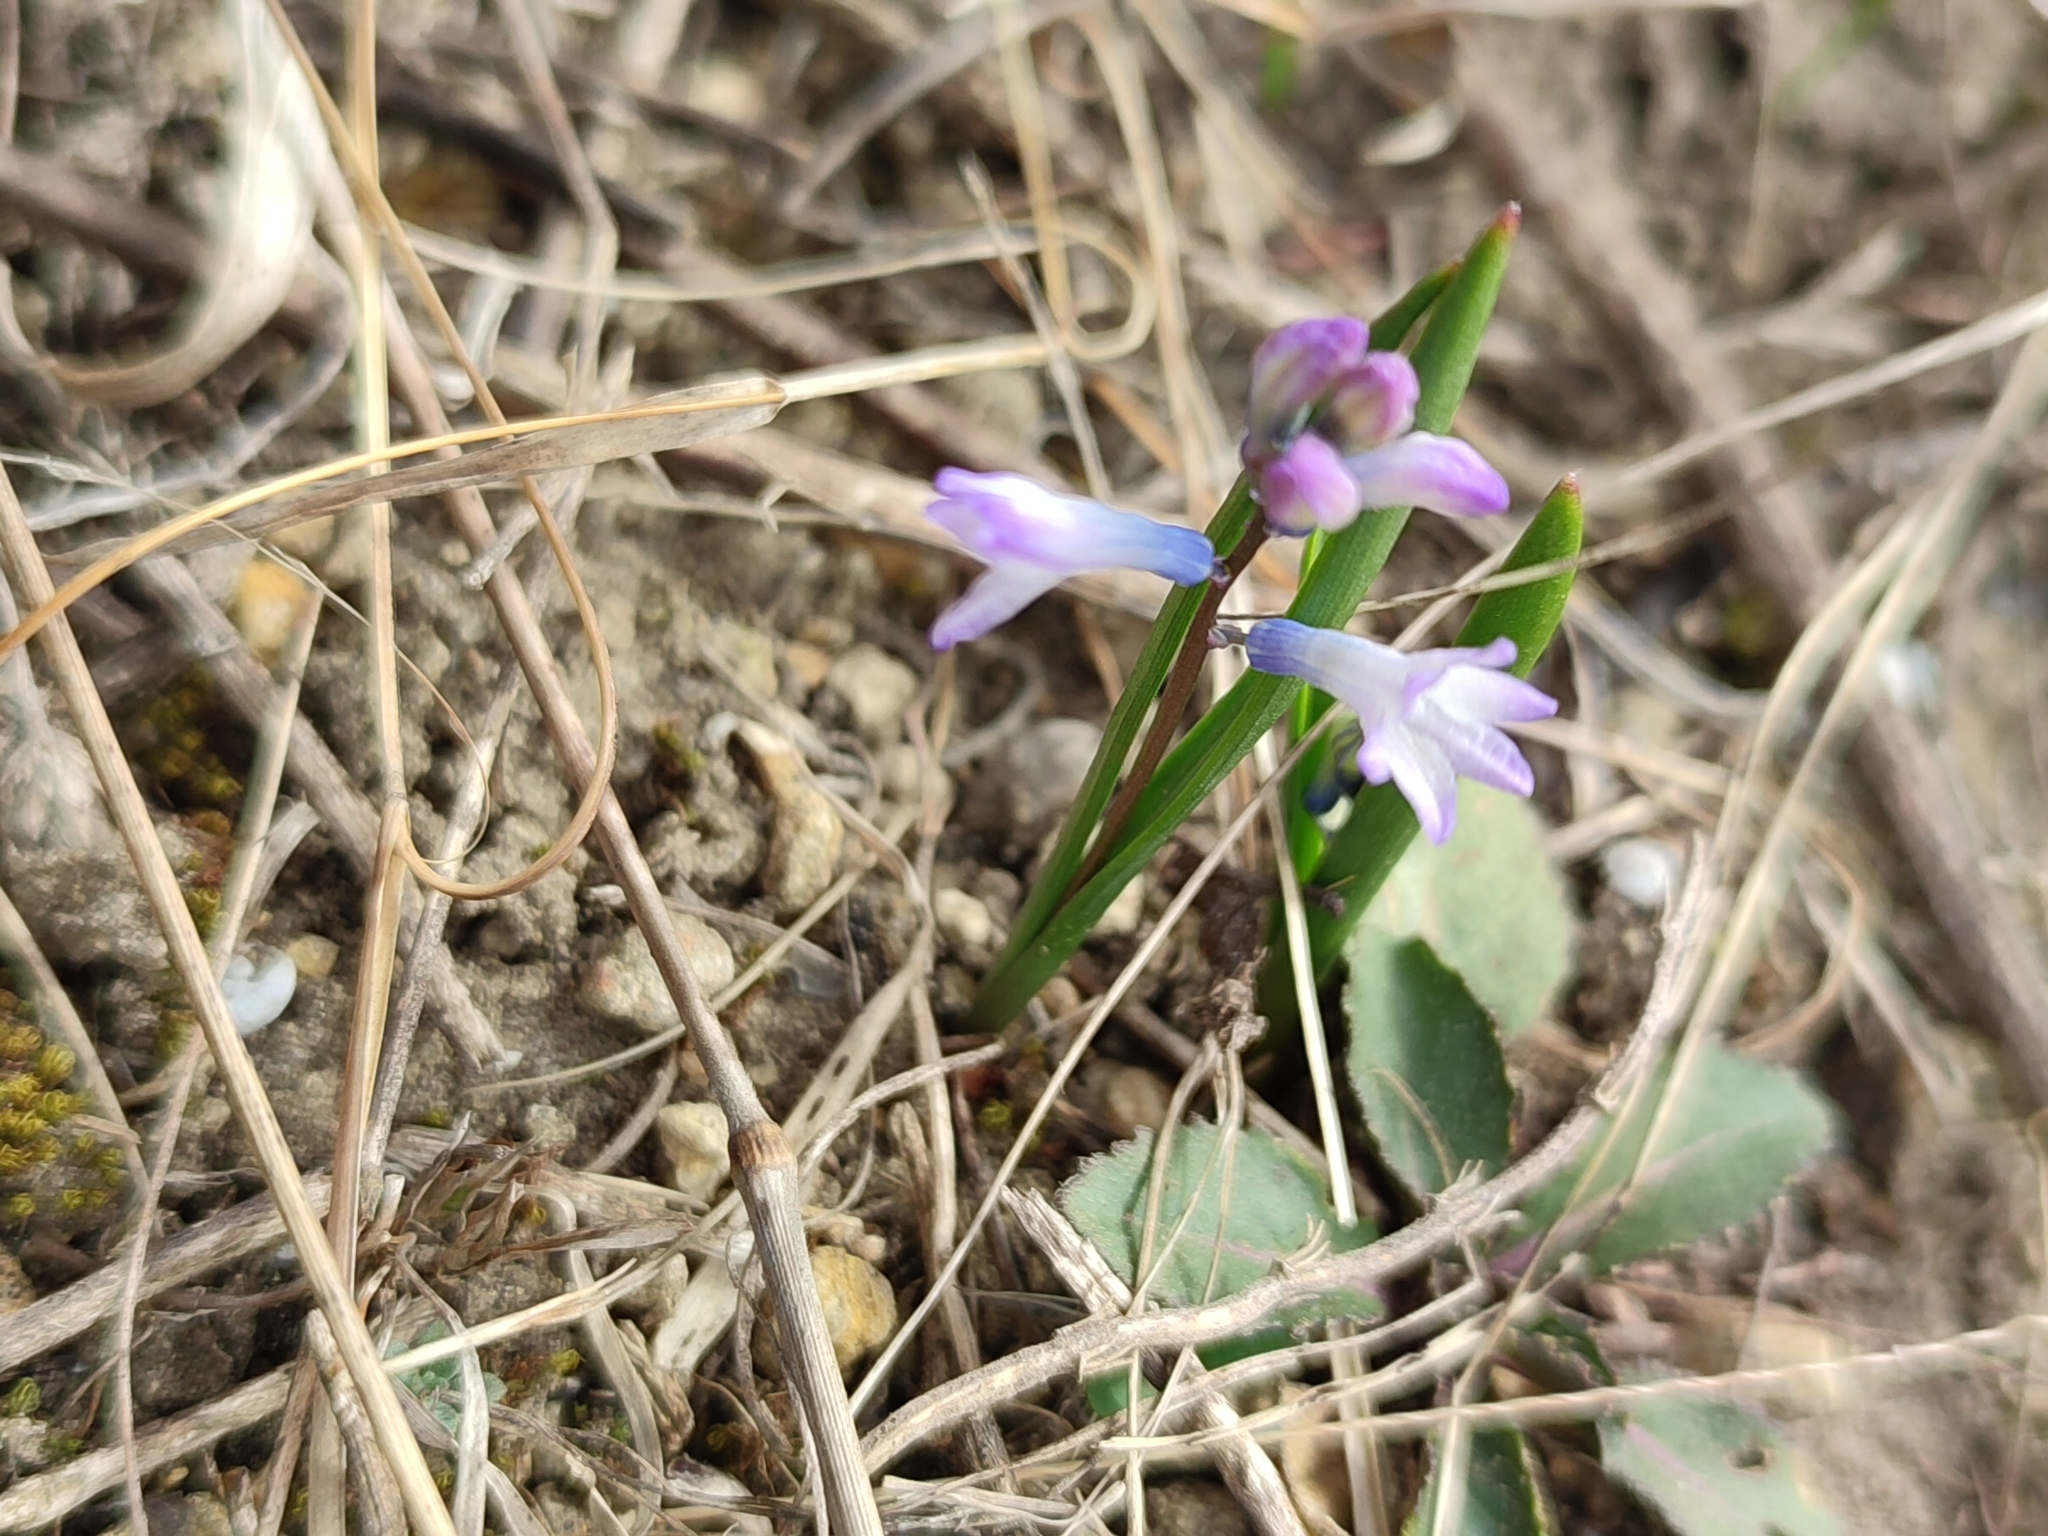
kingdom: Plantae
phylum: Tracheophyta
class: Liliopsida
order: Asparagales
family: Asparagaceae
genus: Hyacinthella
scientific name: Hyacinthella pallasiana
